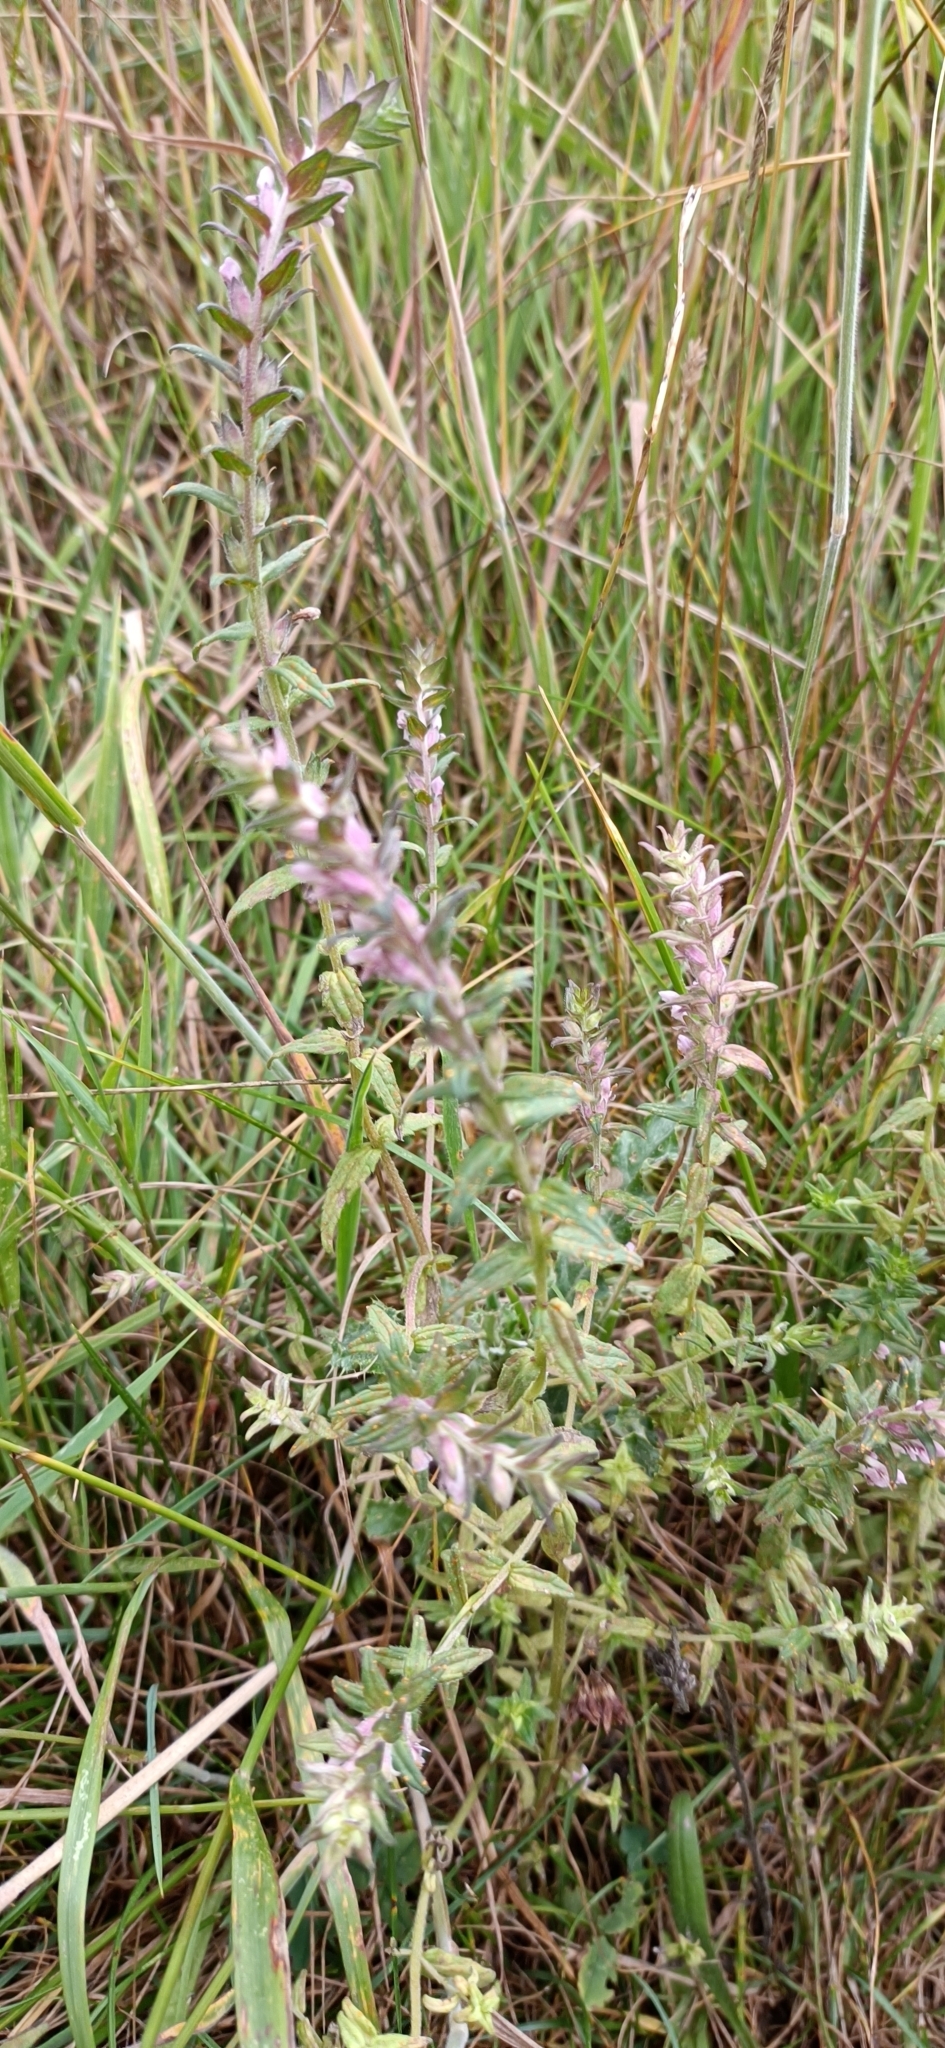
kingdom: Plantae
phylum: Tracheophyta
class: Magnoliopsida
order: Lamiales
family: Orobanchaceae
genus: Odontites
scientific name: Odontites vernus
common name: Red bartsia
